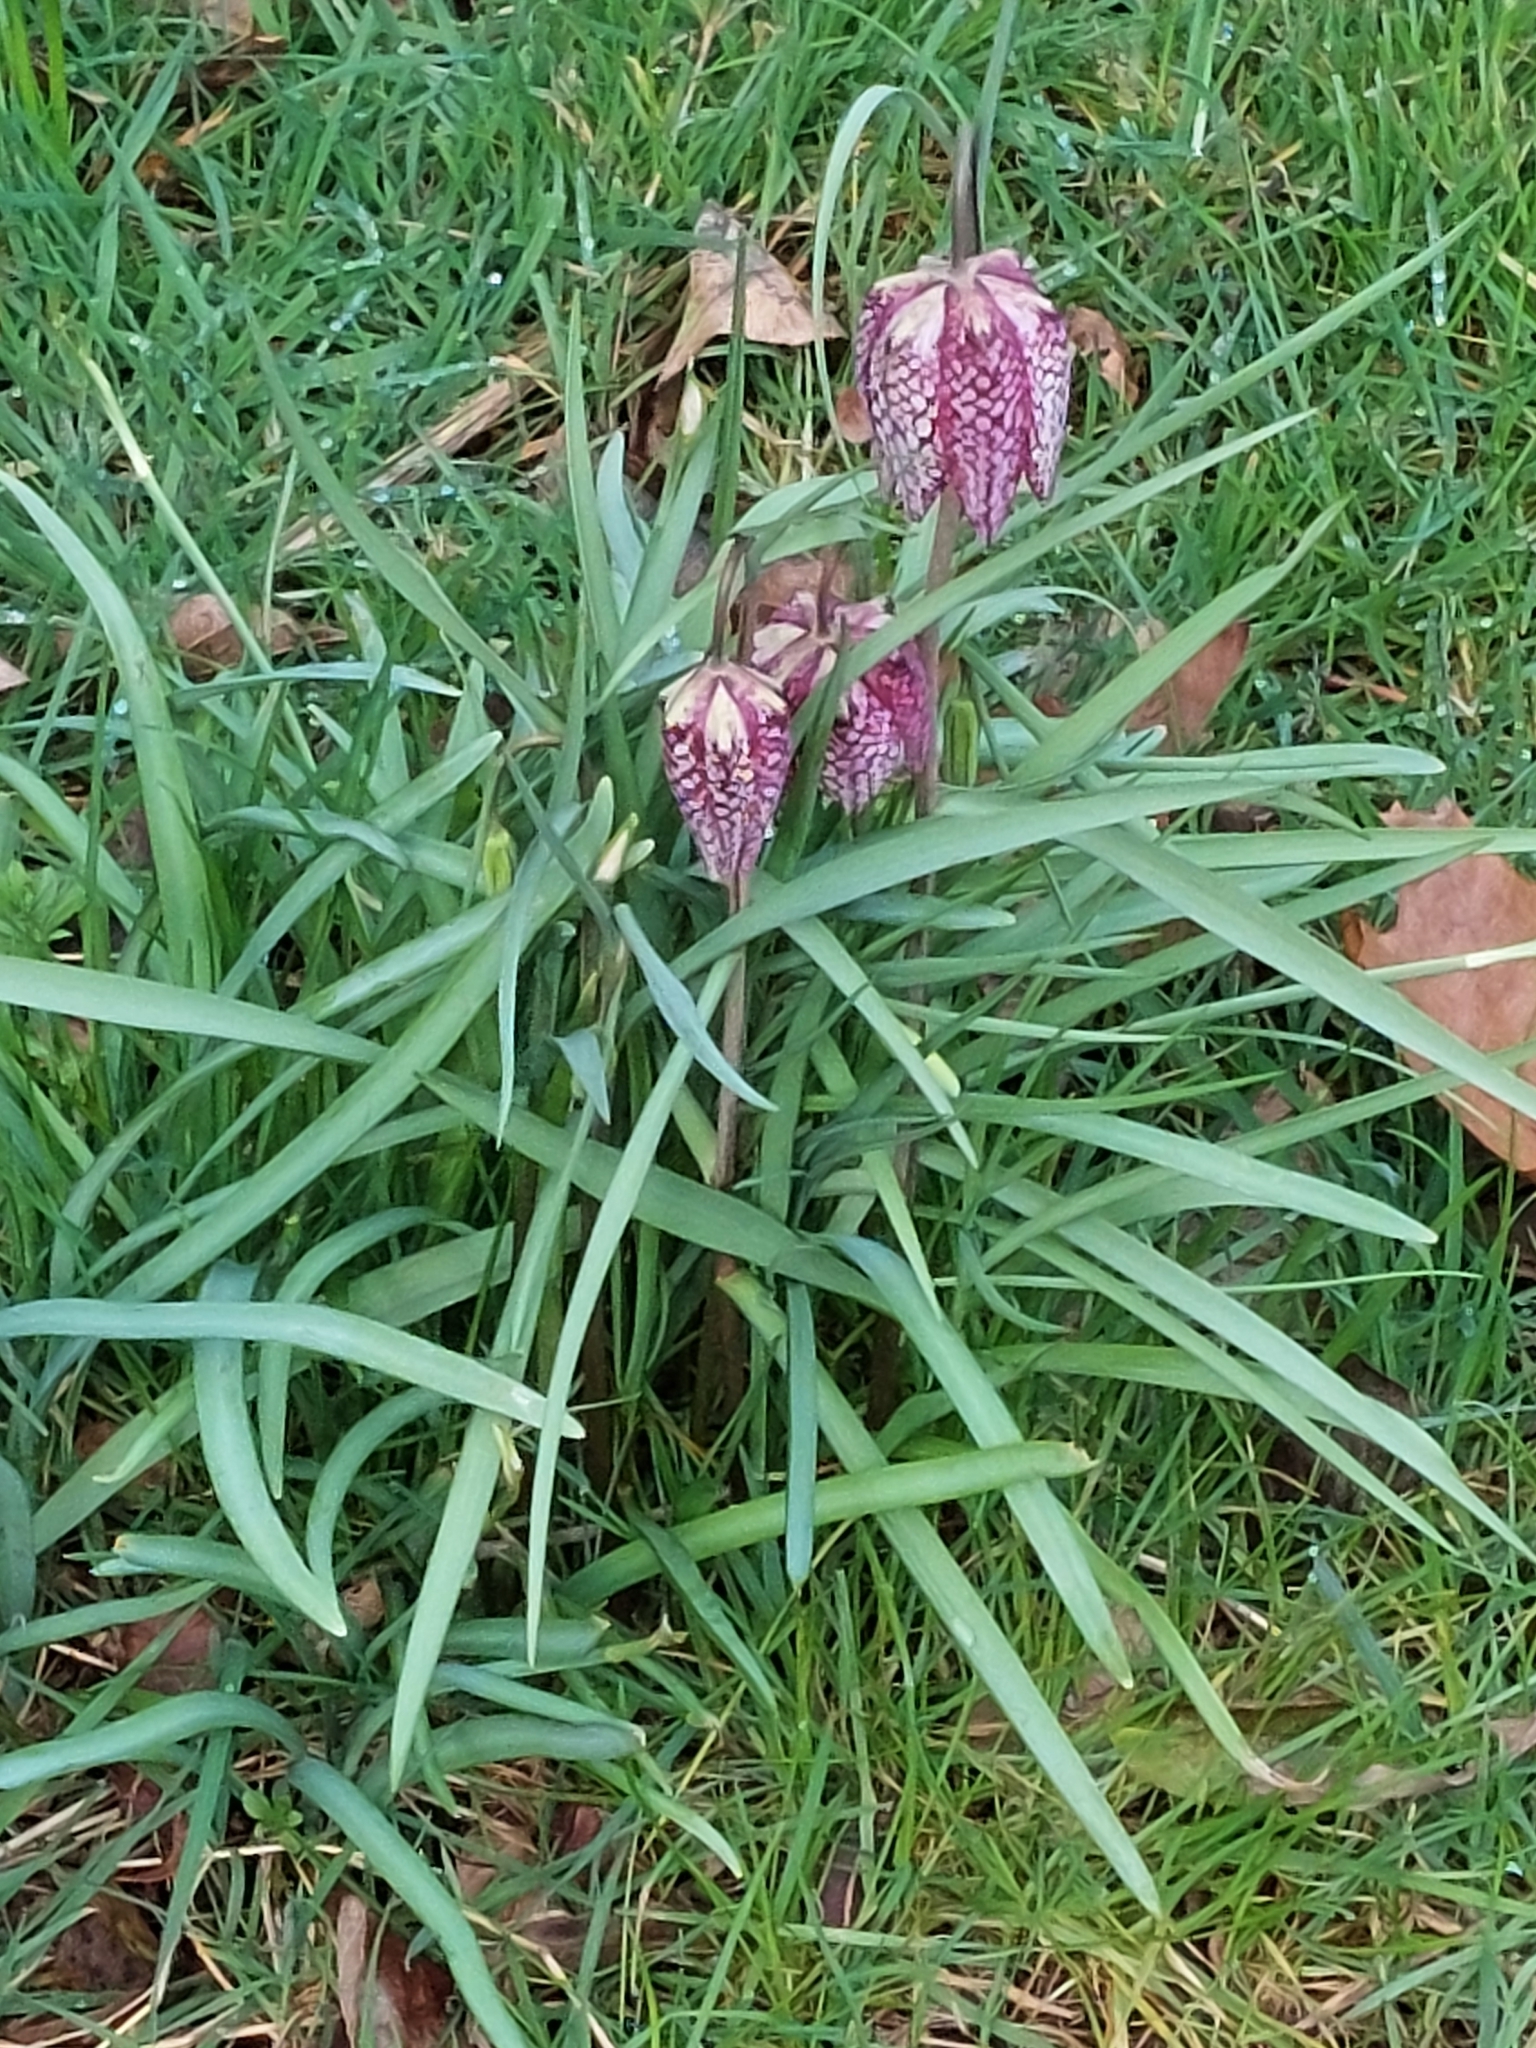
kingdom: Plantae
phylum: Tracheophyta
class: Liliopsida
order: Liliales
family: Liliaceae
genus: Fritillaria
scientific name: Fritillaria meleagris
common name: Fritillary
